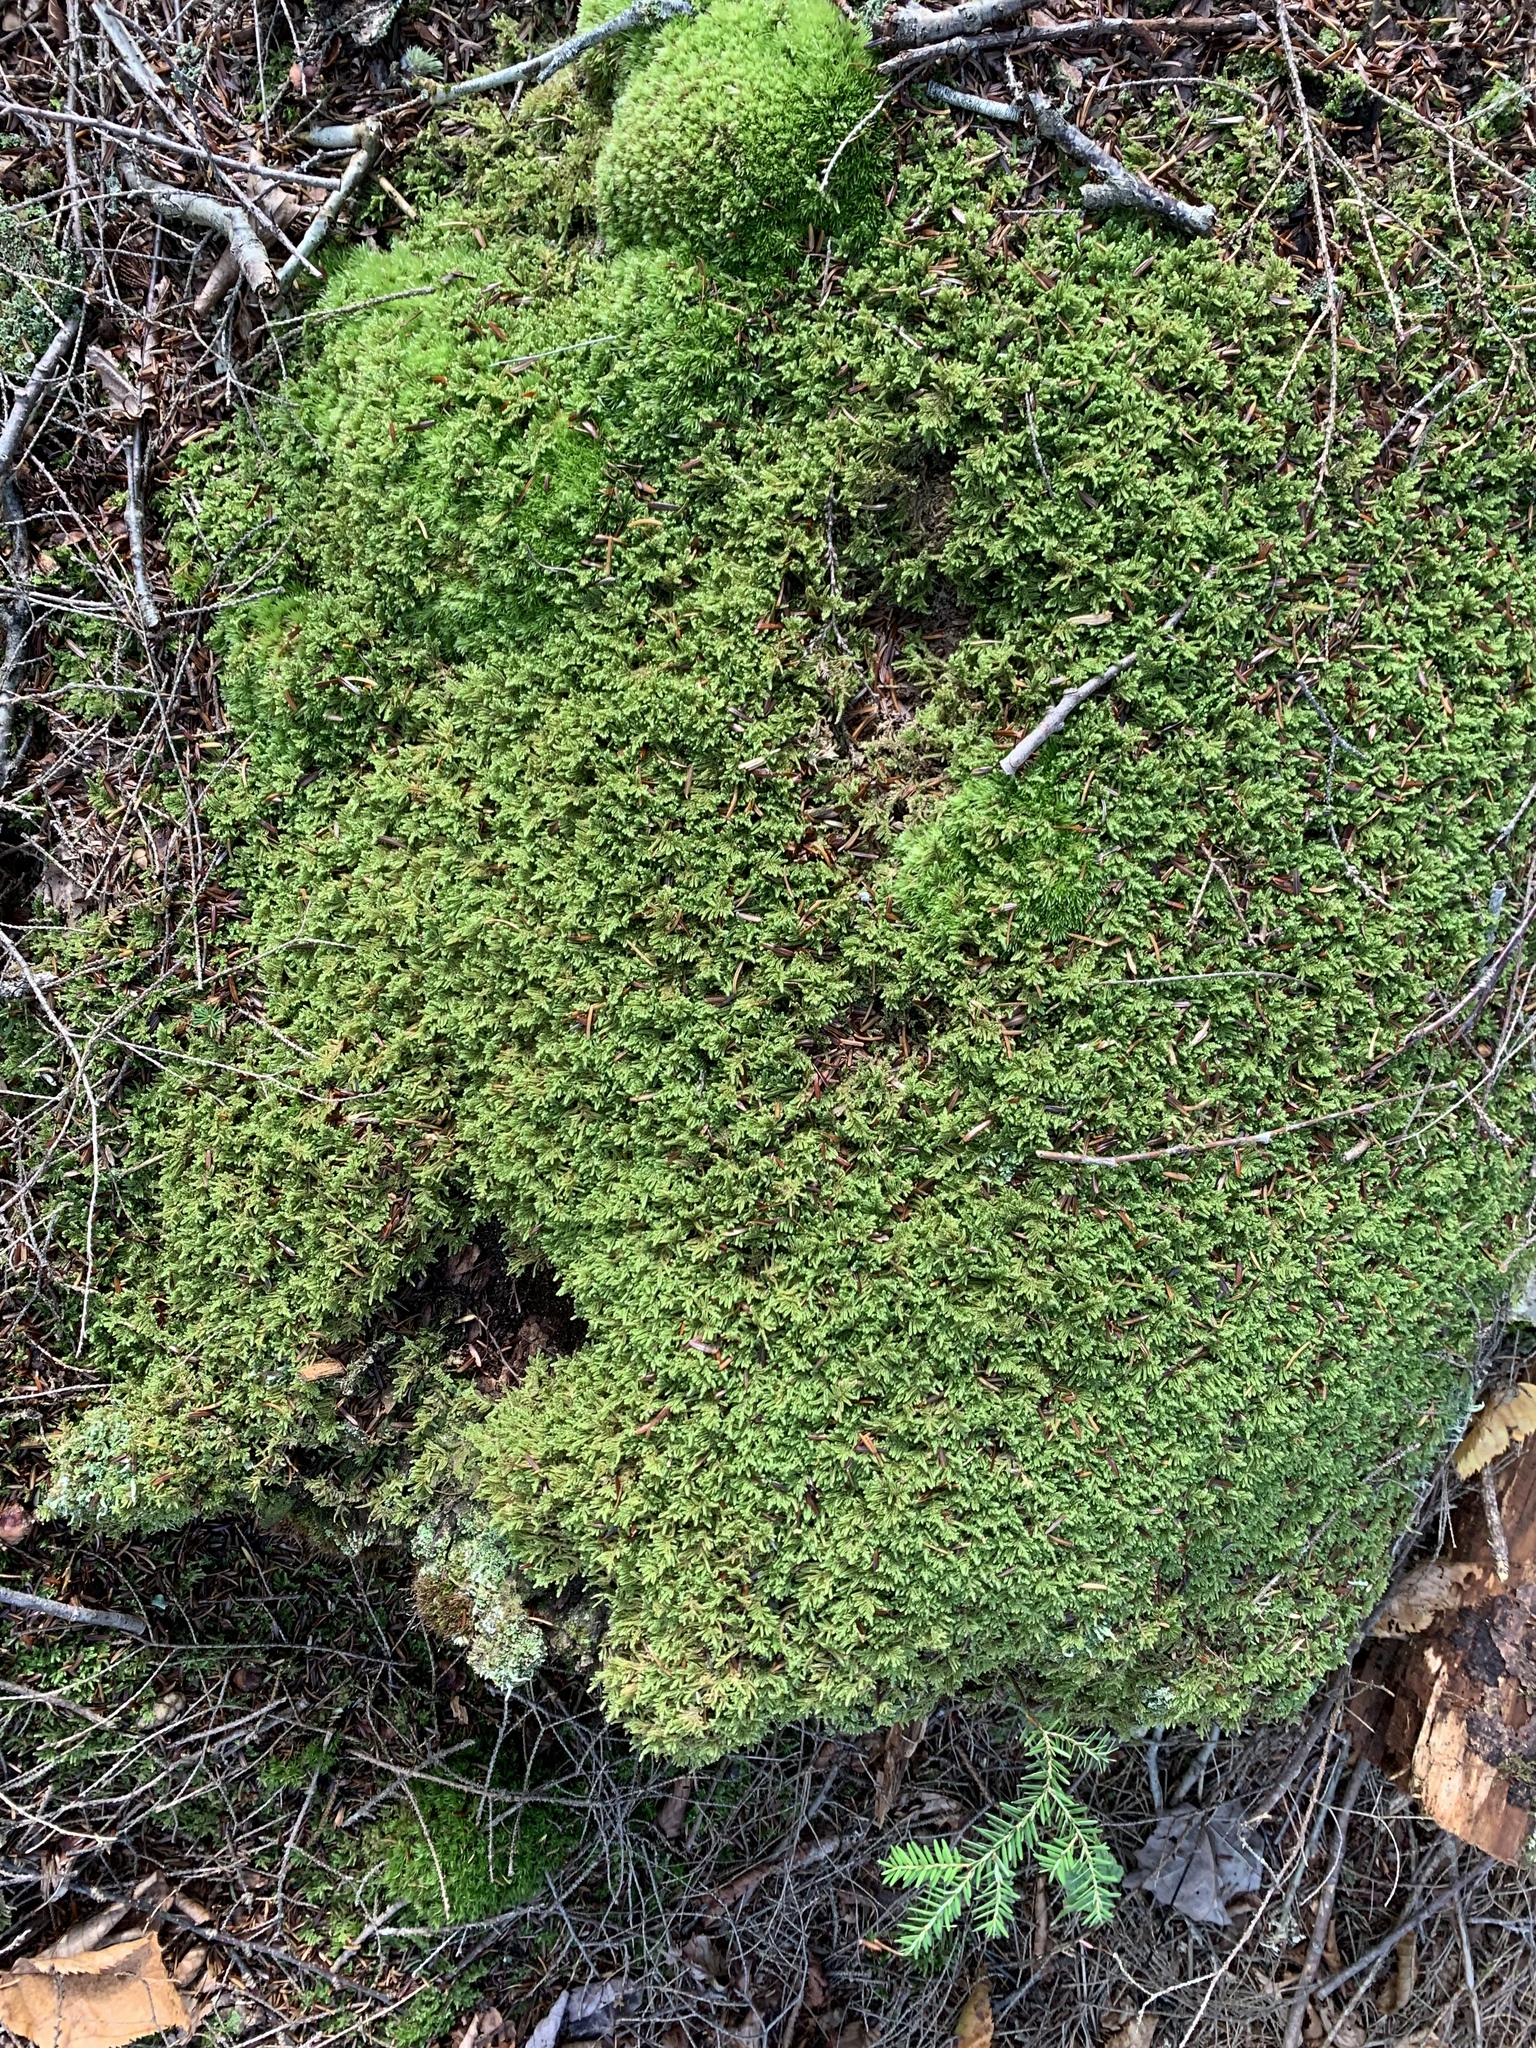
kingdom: Plantae
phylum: Bryophyta
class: Bryopsida
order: Hypnales
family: Callicladiaceae
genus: Callicladium
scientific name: Callicladium imponens
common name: Brocade moss
